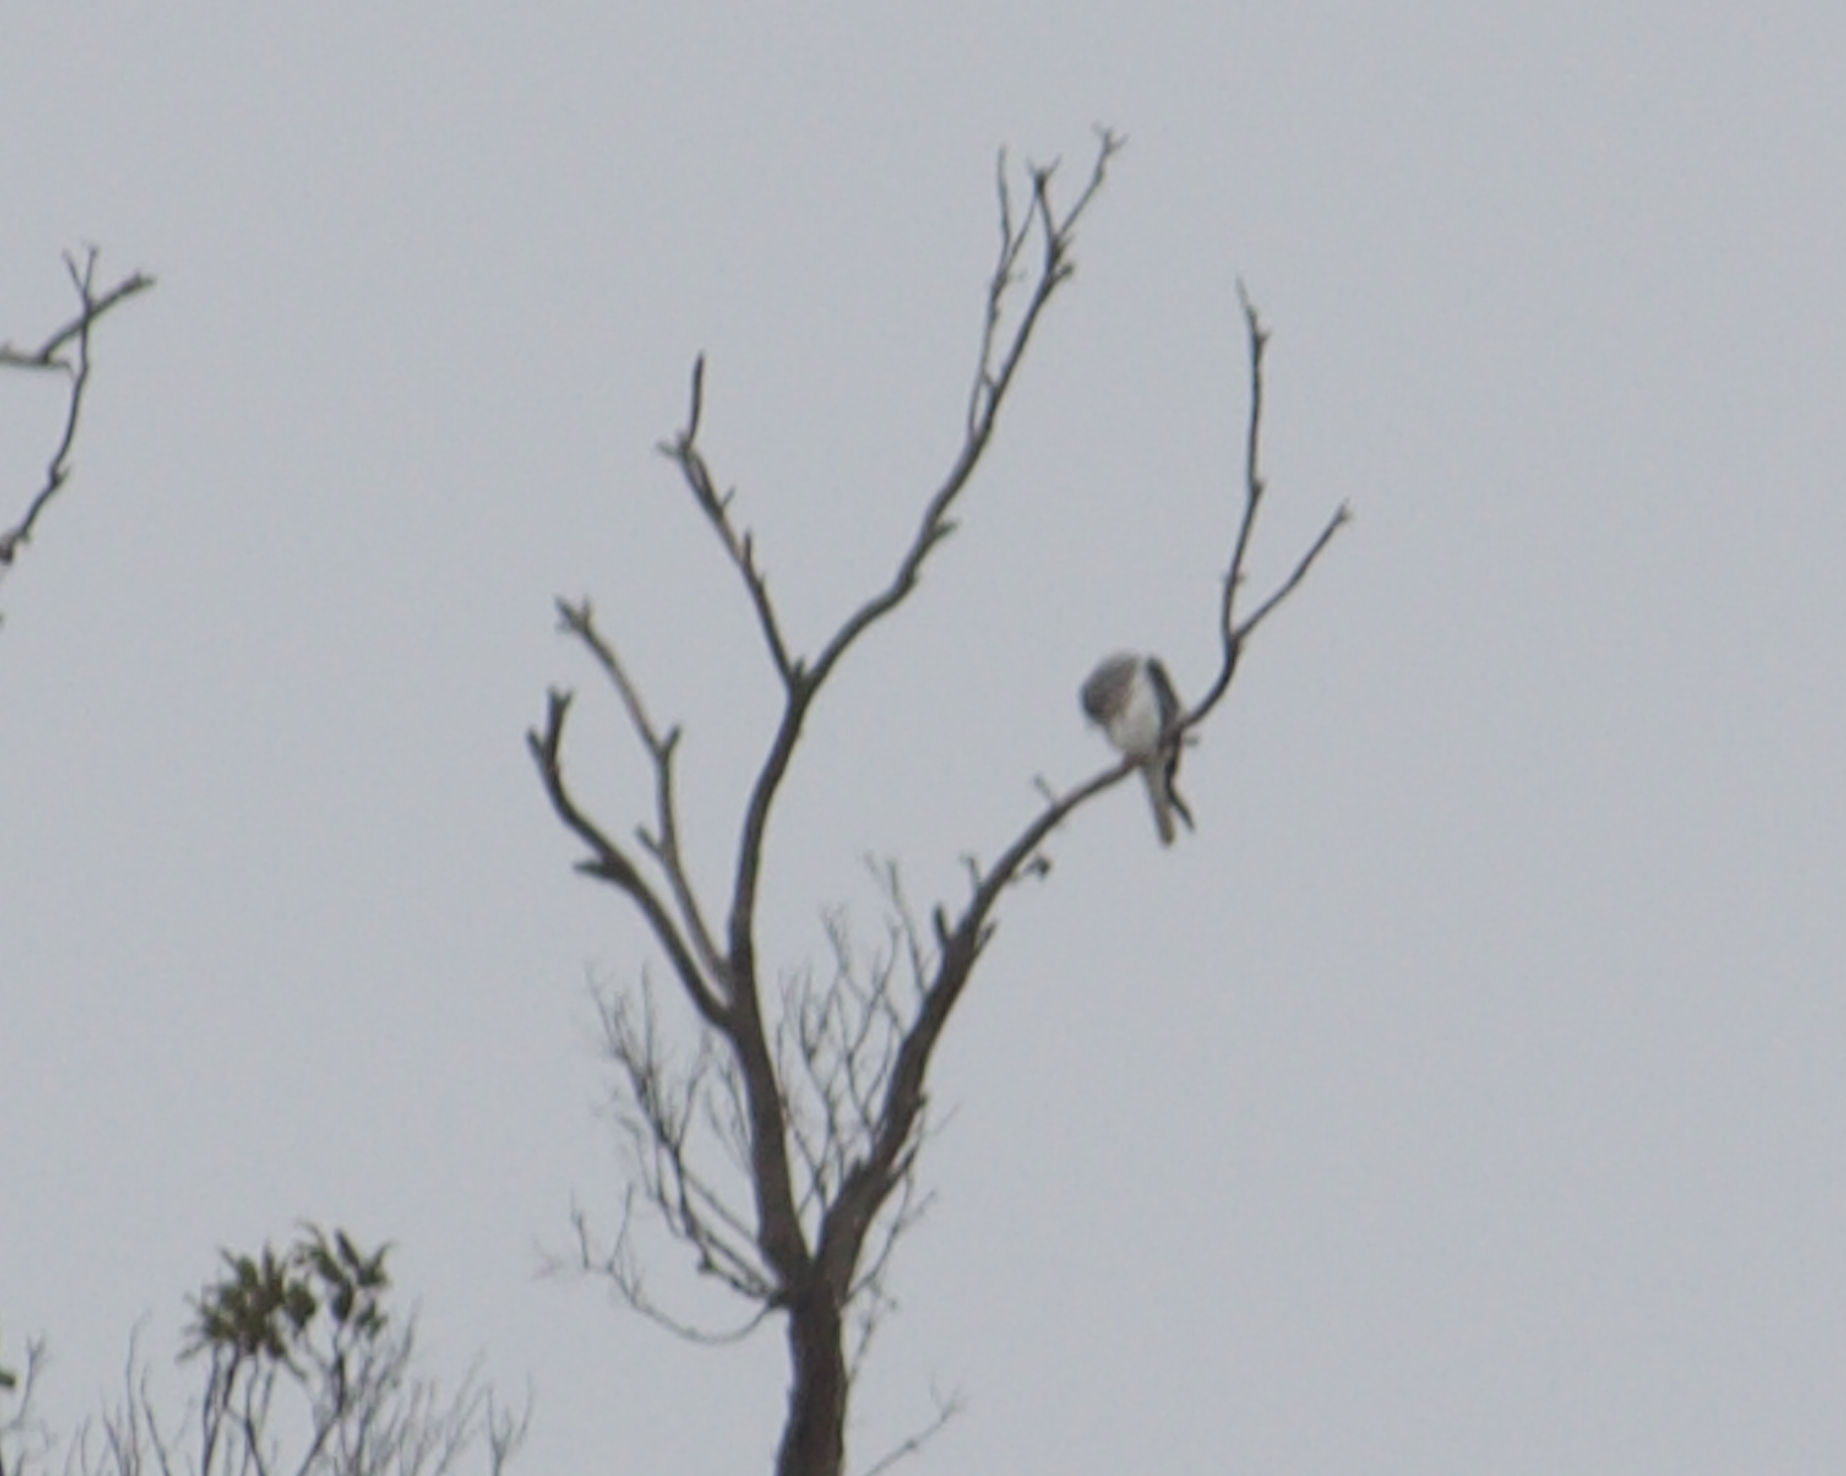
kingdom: Animalia
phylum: Chordata
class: Aves
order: Accipitriformes
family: Accipitridae
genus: Elanus
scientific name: Elanus leucurus
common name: White-tailed kite
